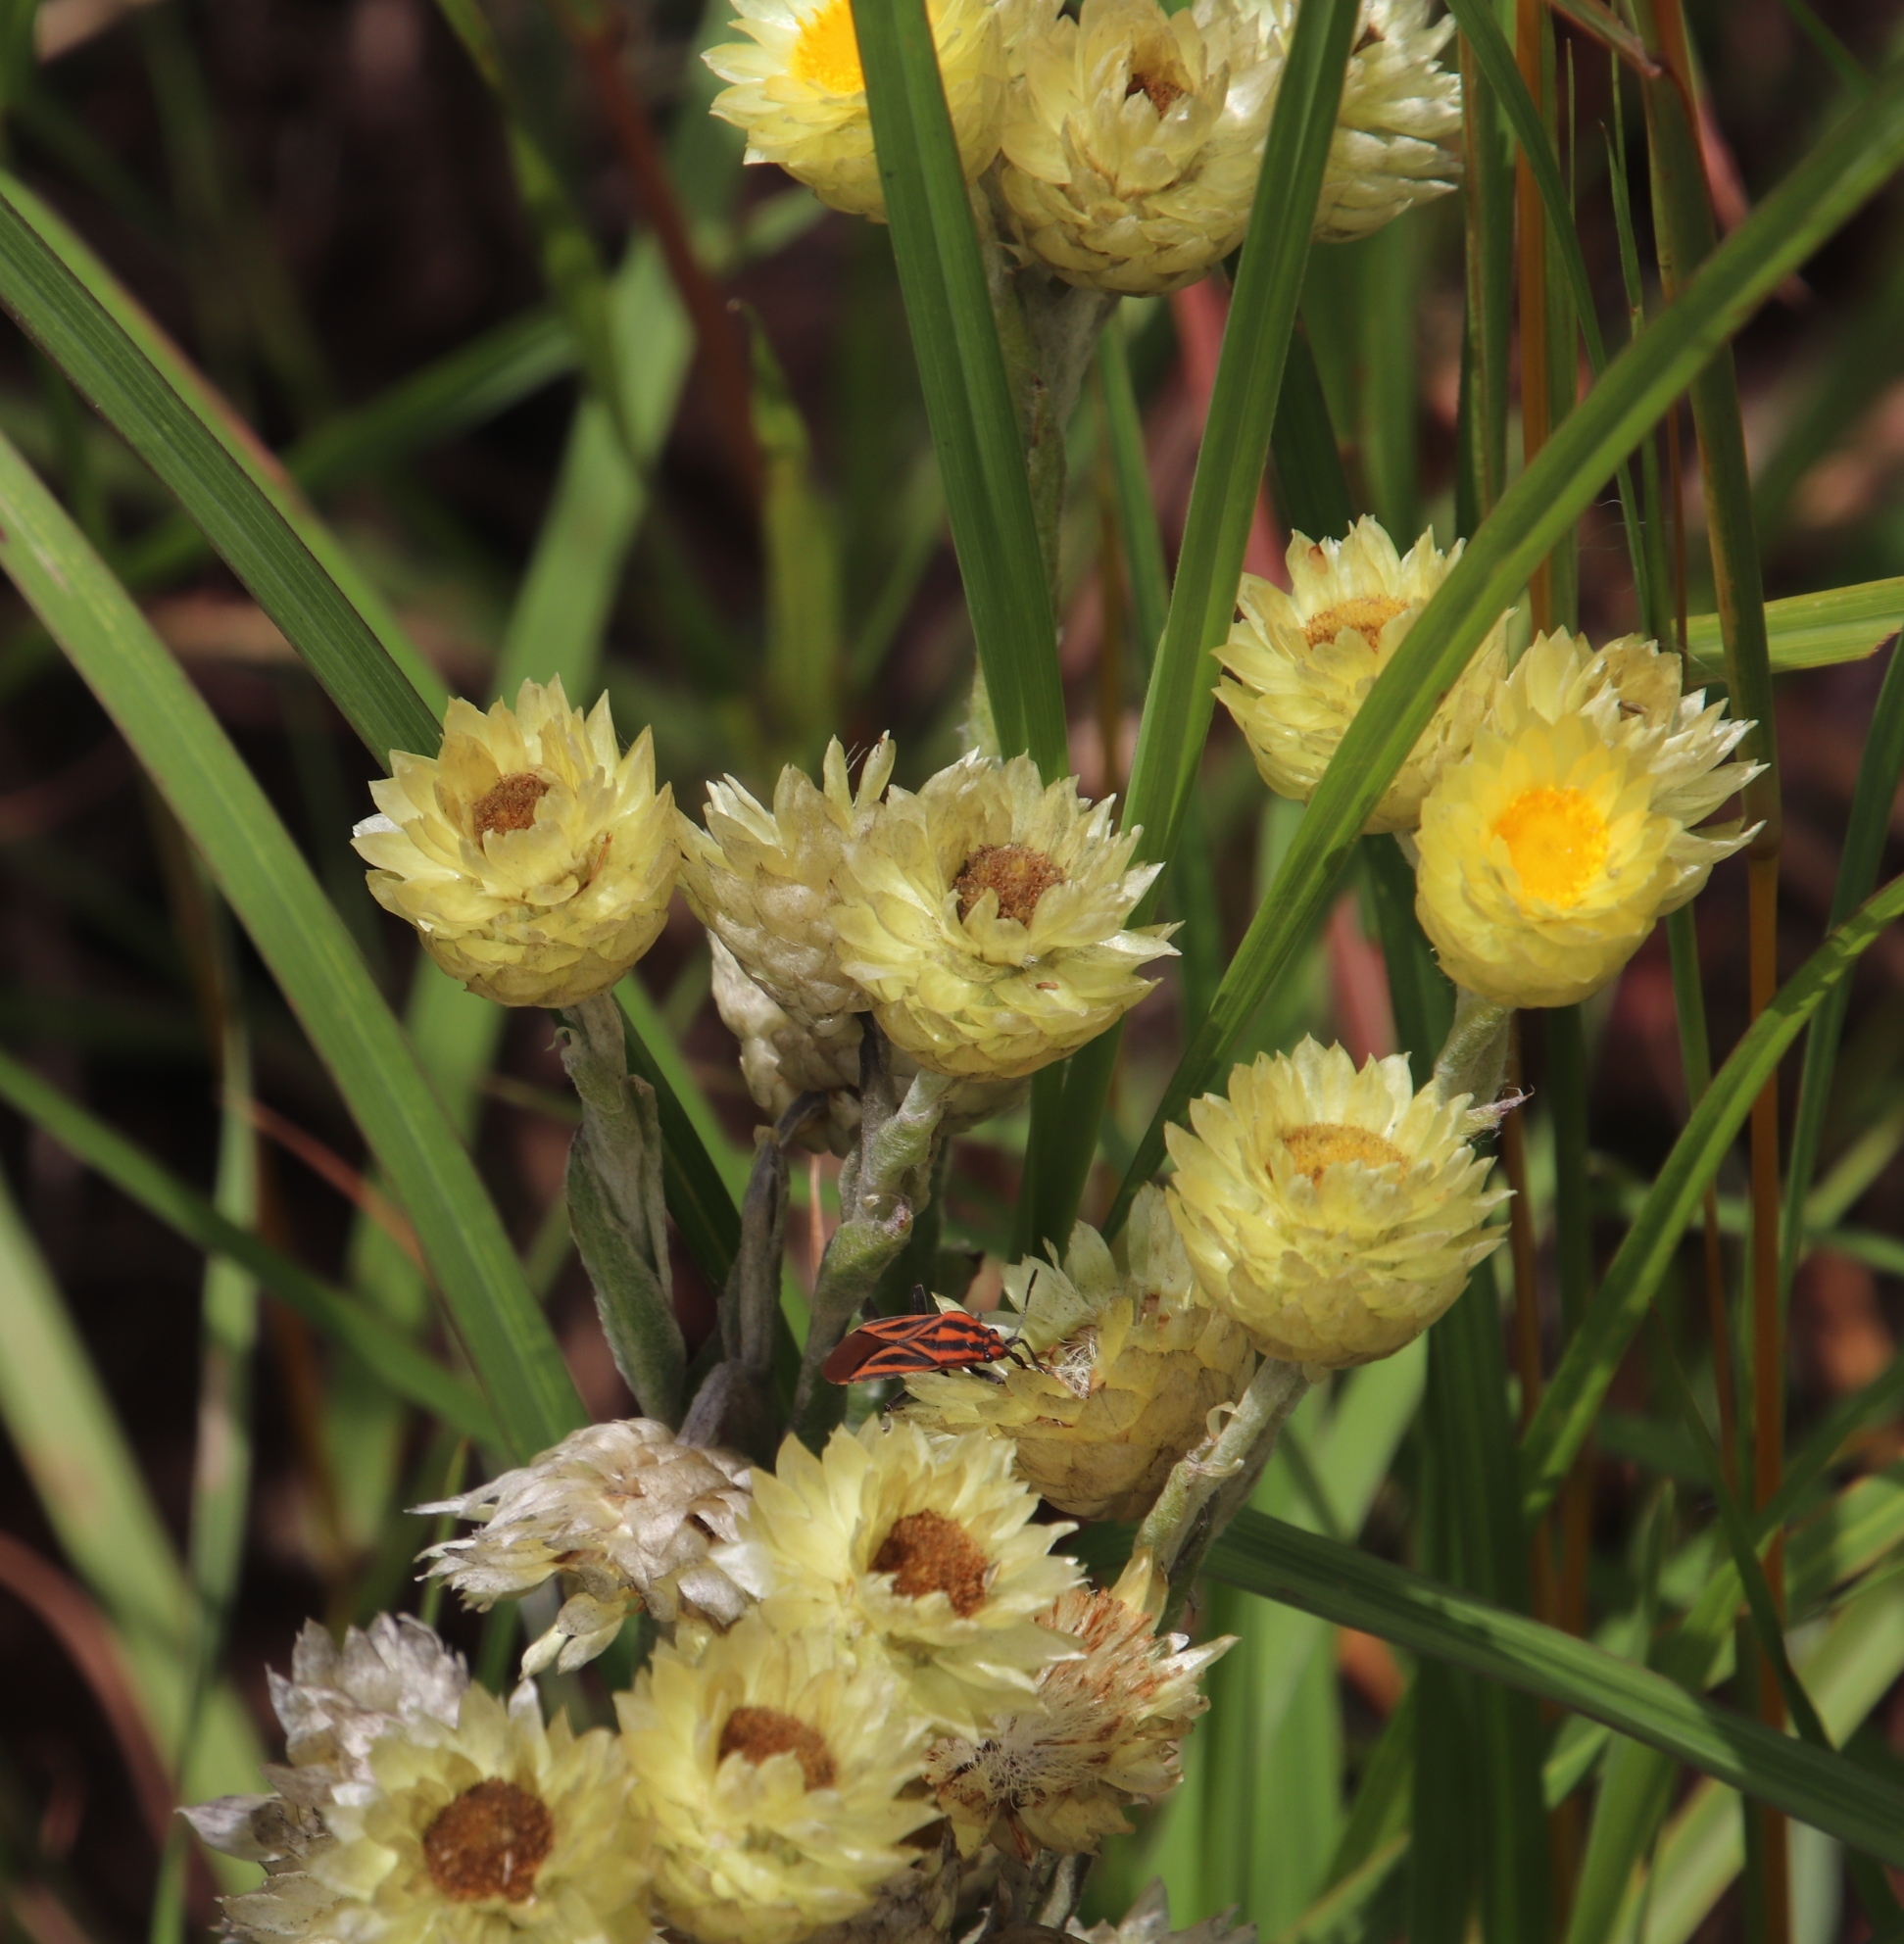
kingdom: Plantae
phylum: Tracheophyta
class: Magnoliopsida
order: Asterales
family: Asteraceae
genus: Helichrysum
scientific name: Helichrysum mixtum
